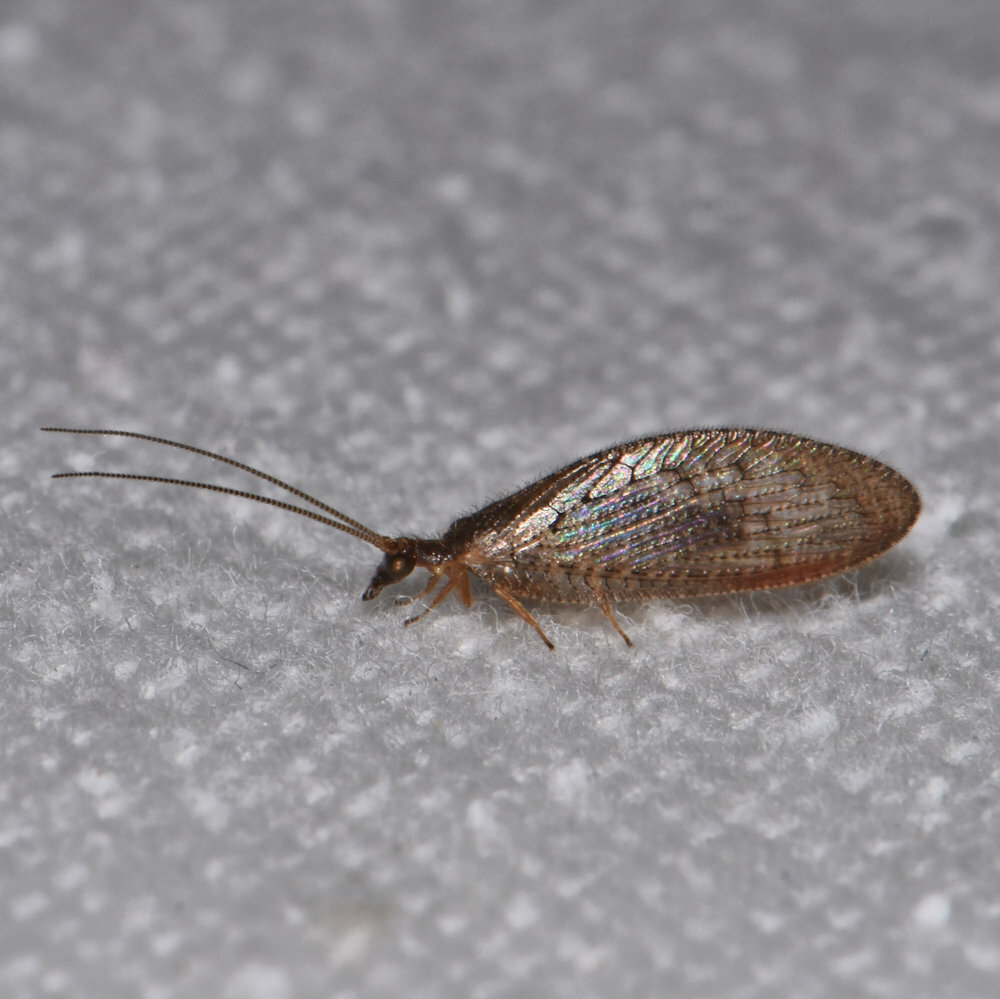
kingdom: Animalia
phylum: Arthropoda
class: Insecta
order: Neuroptera
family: Hemerobiidae
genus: Hemerobius
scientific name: Hemerobius stigma
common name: Brown pine lacewing
